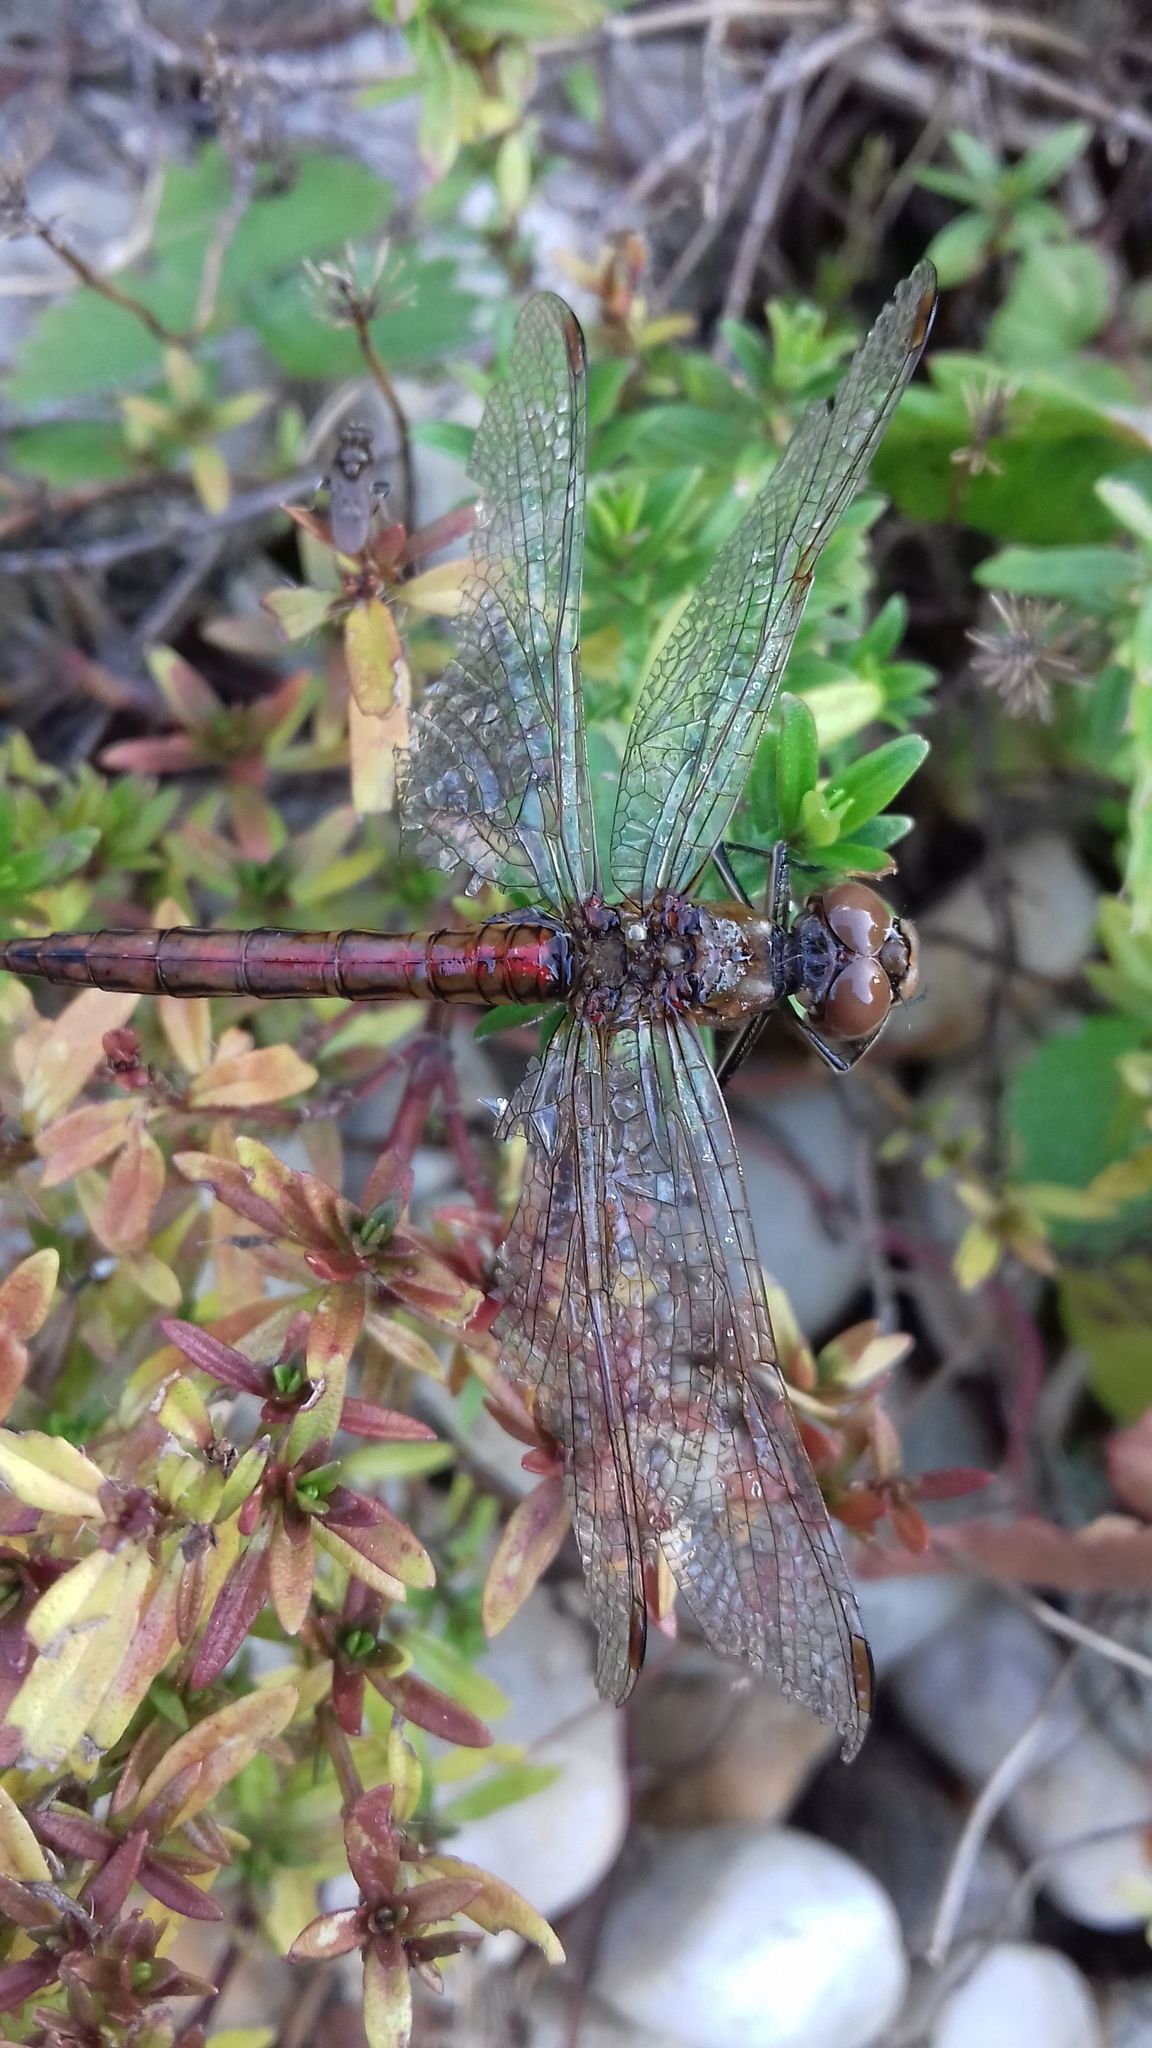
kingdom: Animalia
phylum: Arthropoda
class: Insecta
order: Odonata
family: Libellulidae
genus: Sympetrum
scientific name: Sympetrum vulgatum
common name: Vagrant darter
